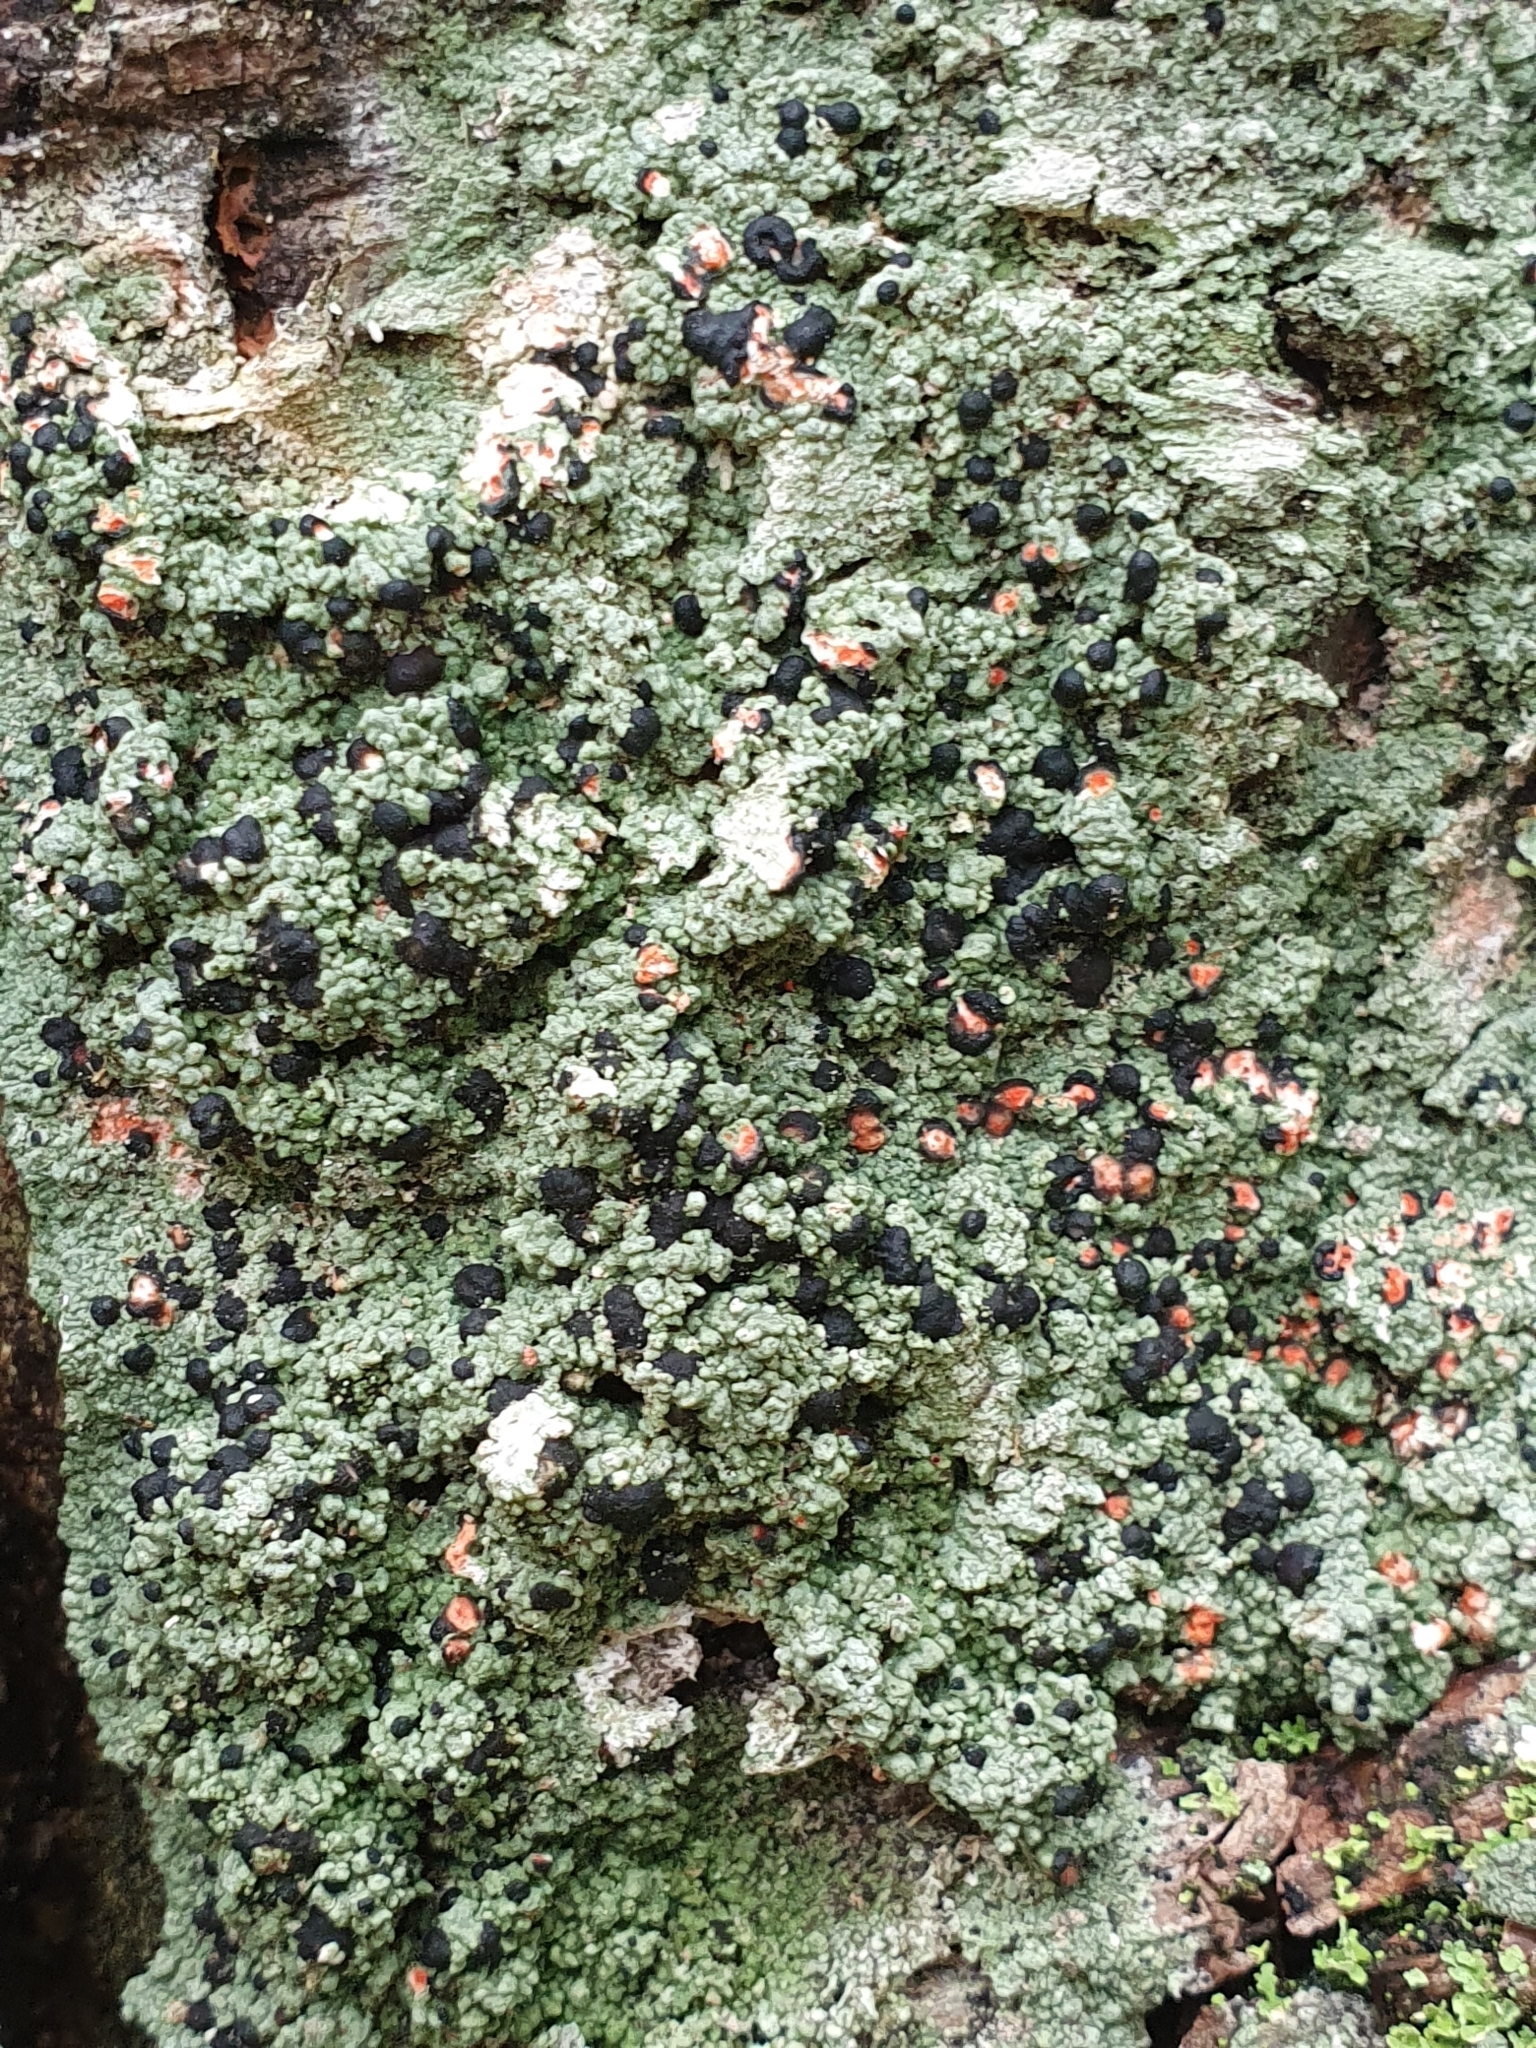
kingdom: Fungi
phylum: Ascomycota
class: Lecanoromycetes
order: Lecanorales
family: Tephromelataceae
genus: Mycoblastus
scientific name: Mycoblastus sanguinarius
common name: Bloody-heart lichen
